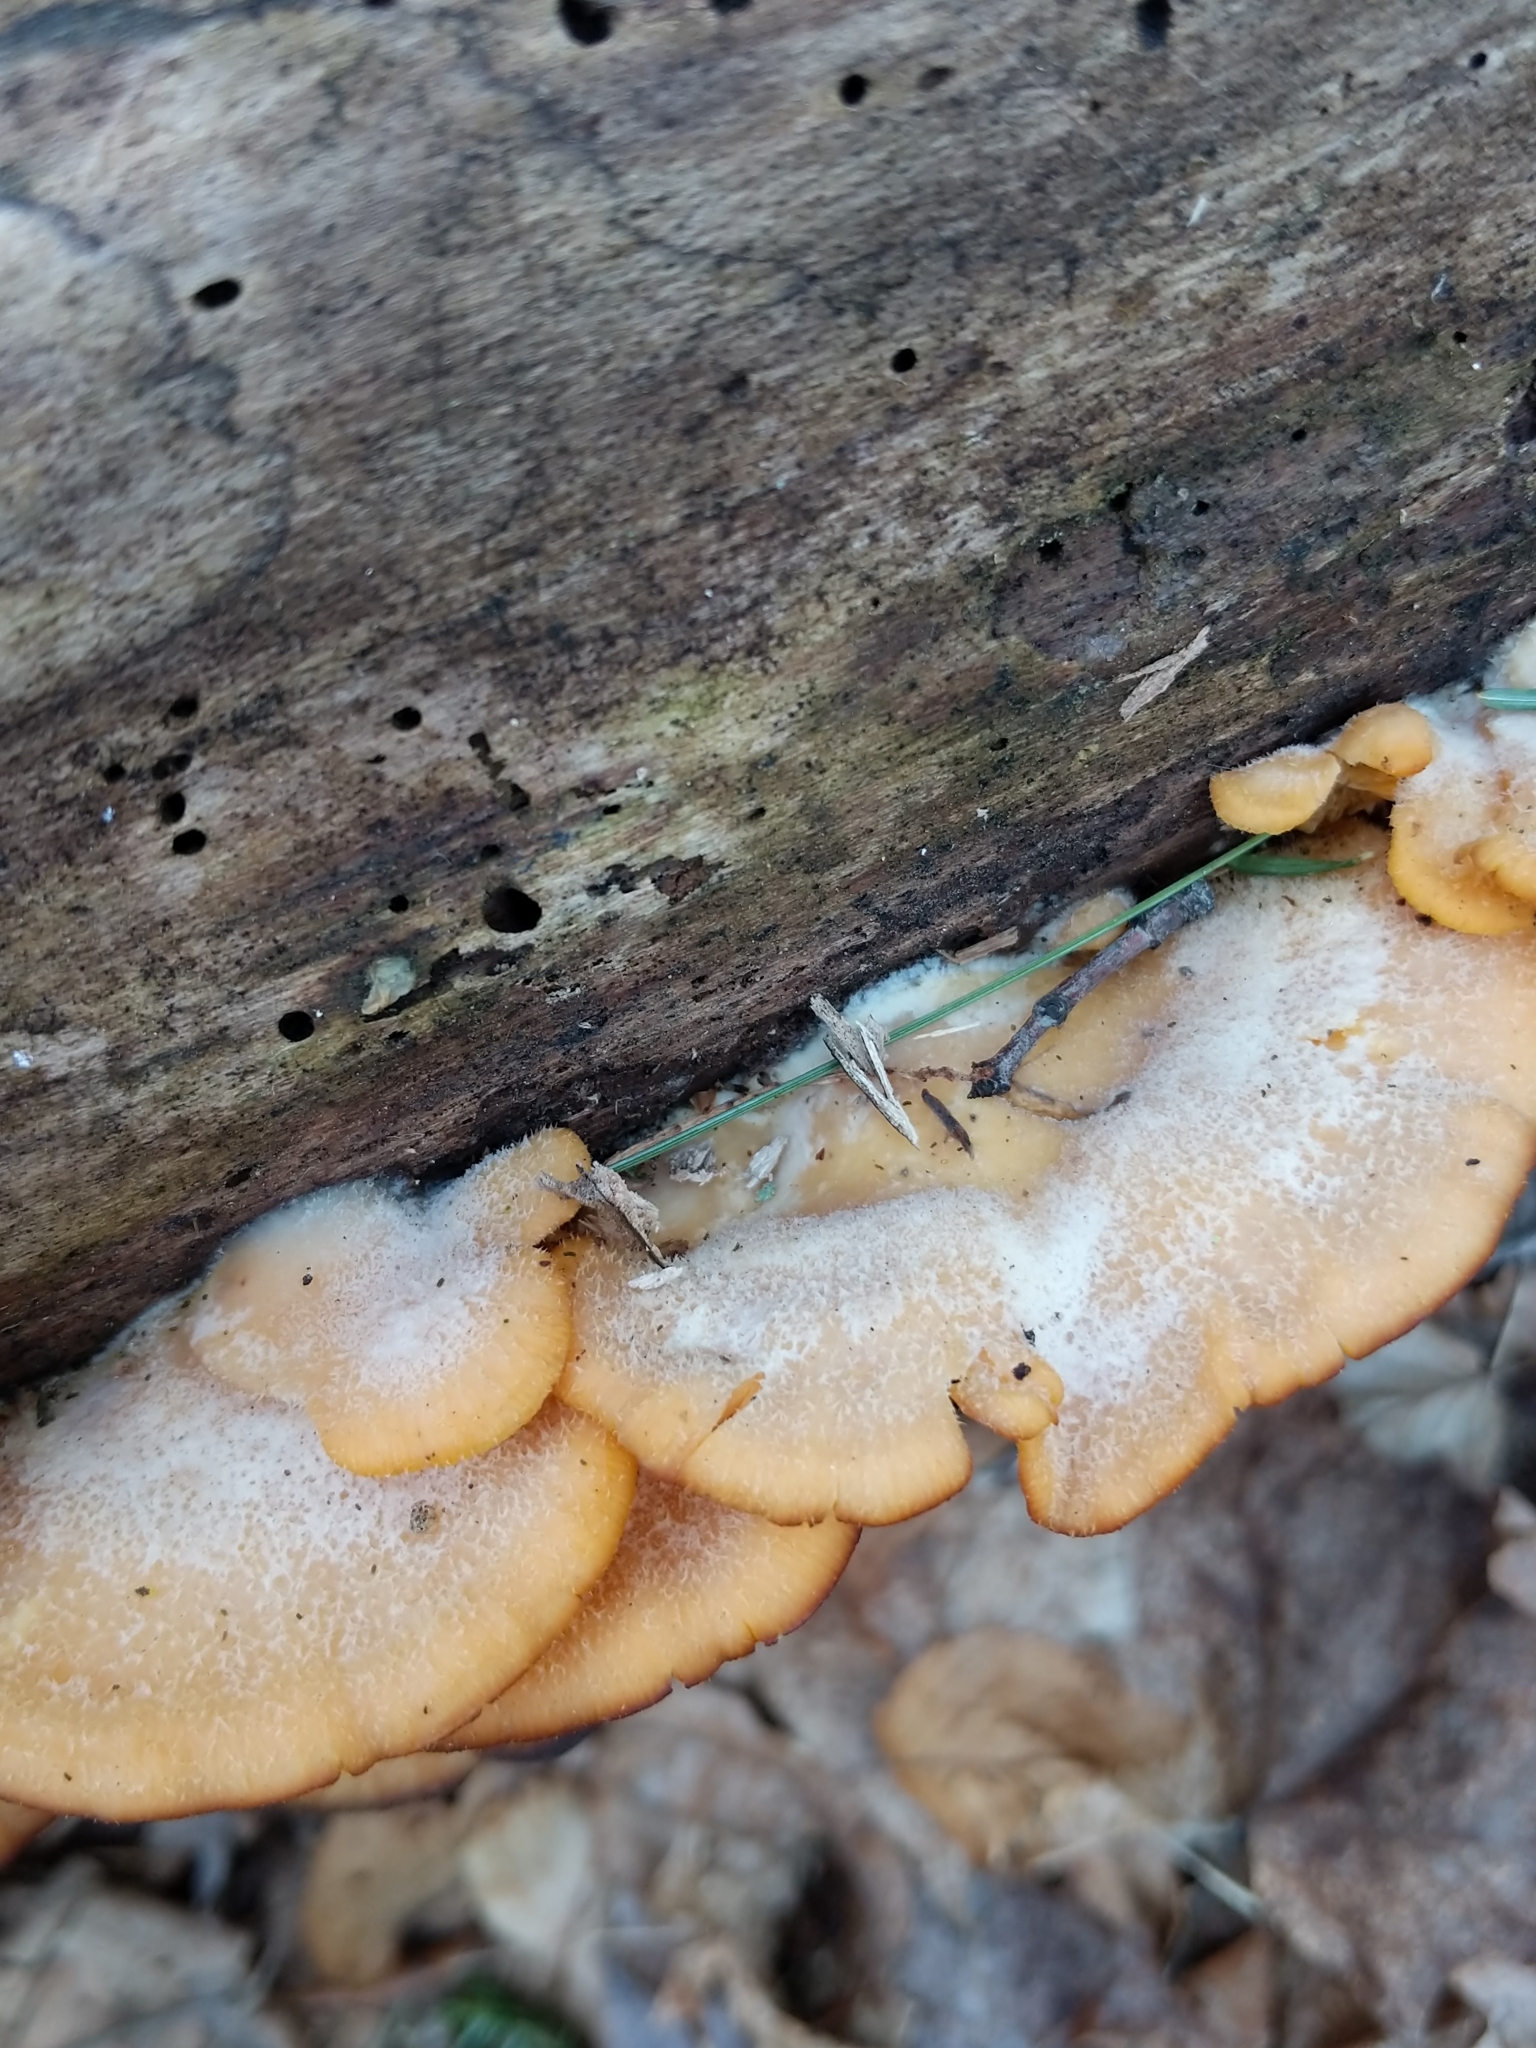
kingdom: Fungi
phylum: Basidiomycota
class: Agaricomycetes
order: Agaricales
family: Phyllotopsidaceae
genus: Phyllotopsis
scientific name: Phyllotopsis nidulans
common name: Orange mock oyster
